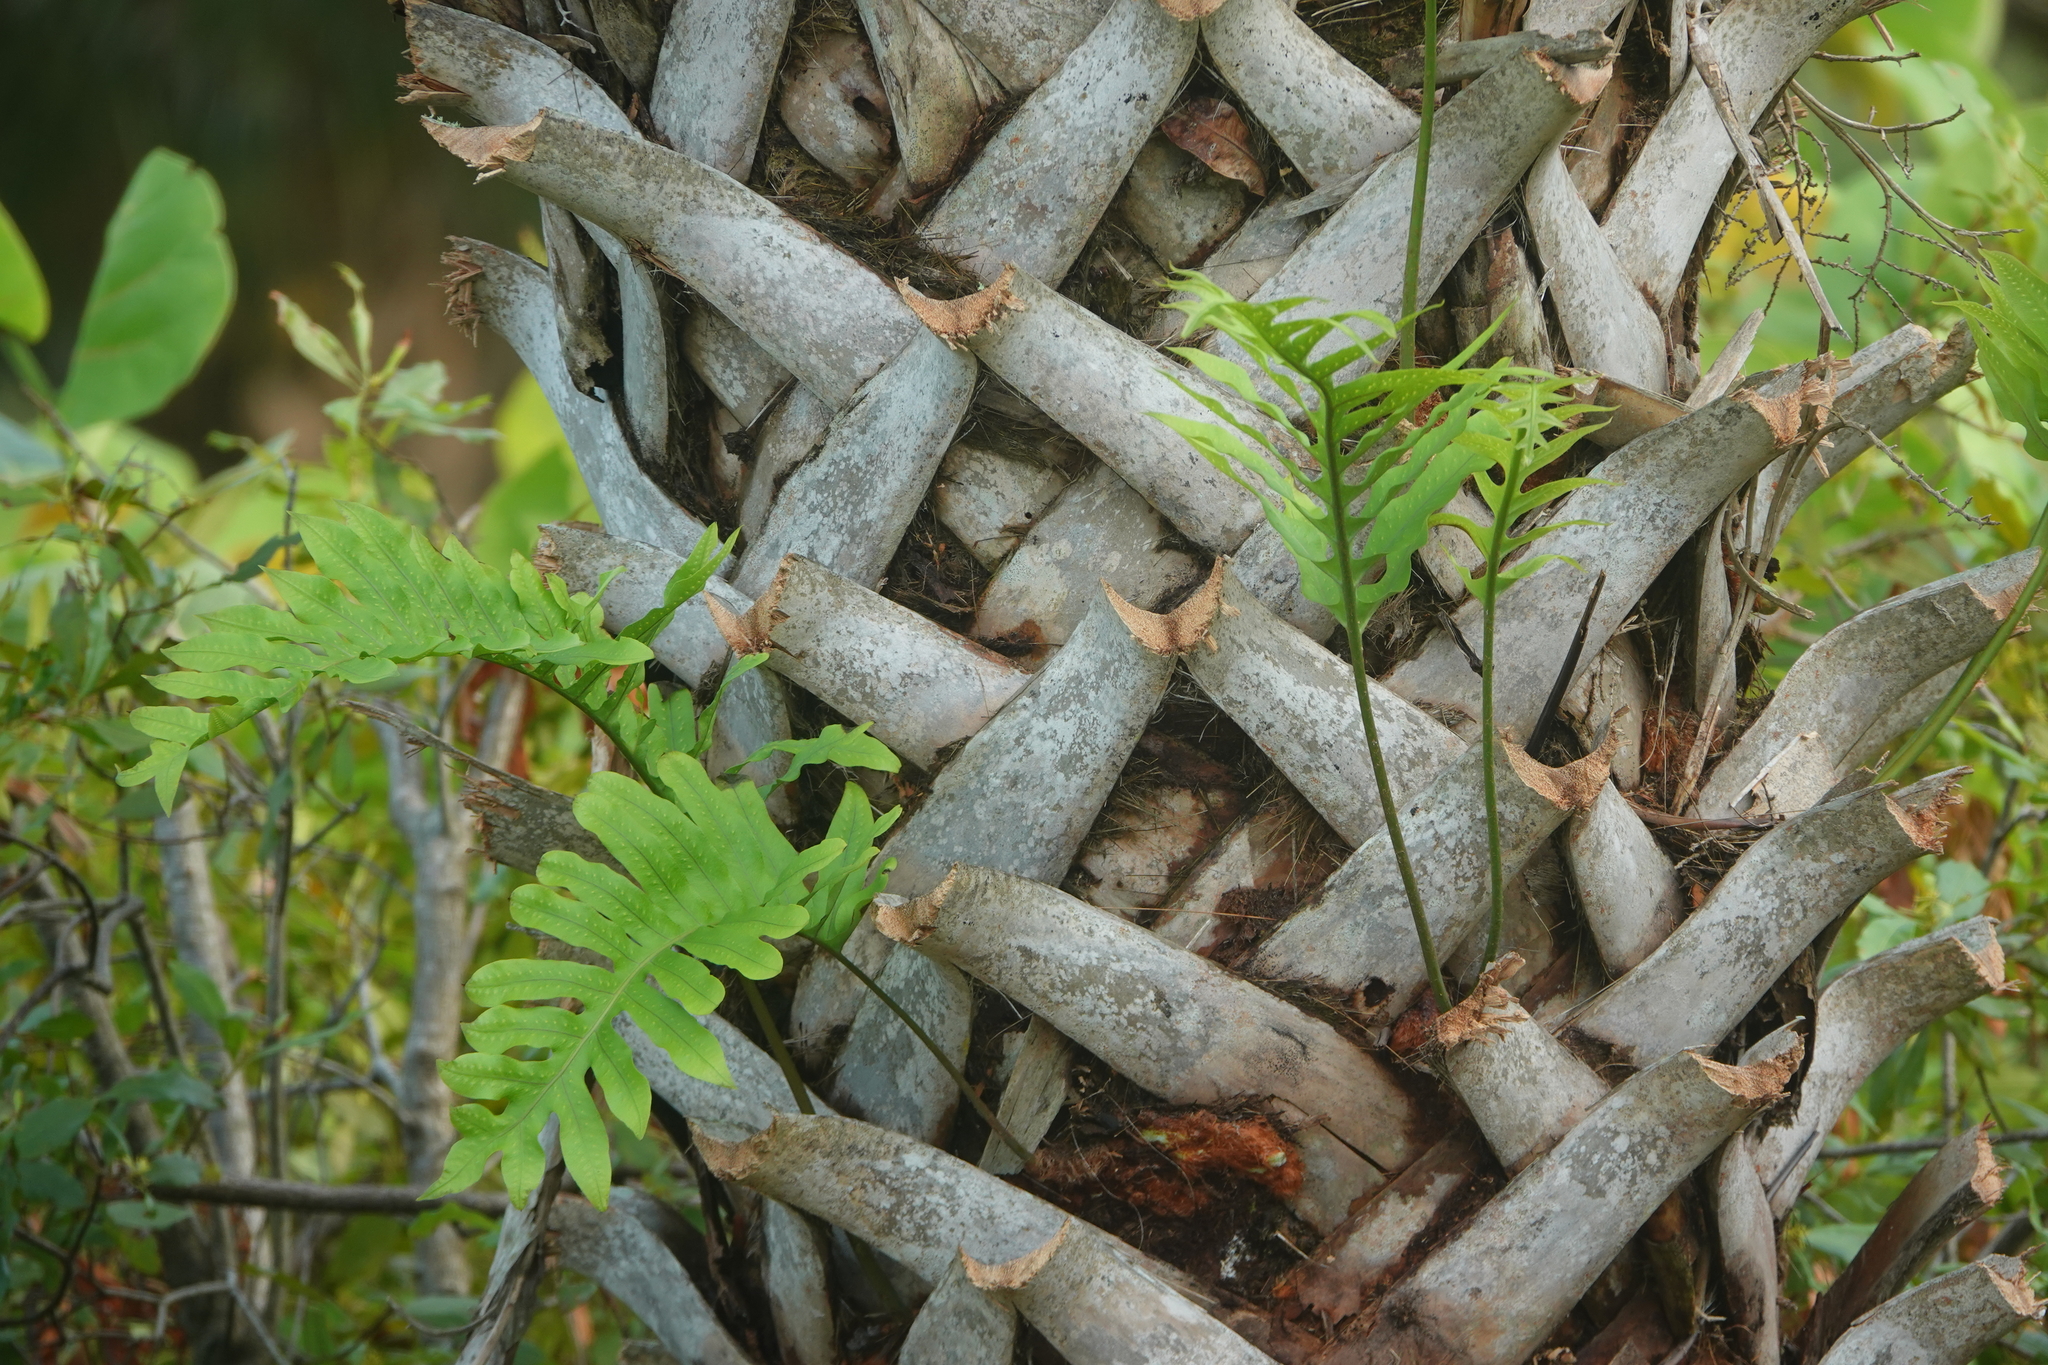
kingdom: Plantae
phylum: Tracheophyta
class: Polypodiopsida
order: Polypodiales
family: Polypodiaceae
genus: Phlebodium
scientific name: Phlebodium aureum
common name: Gold-foot fern
